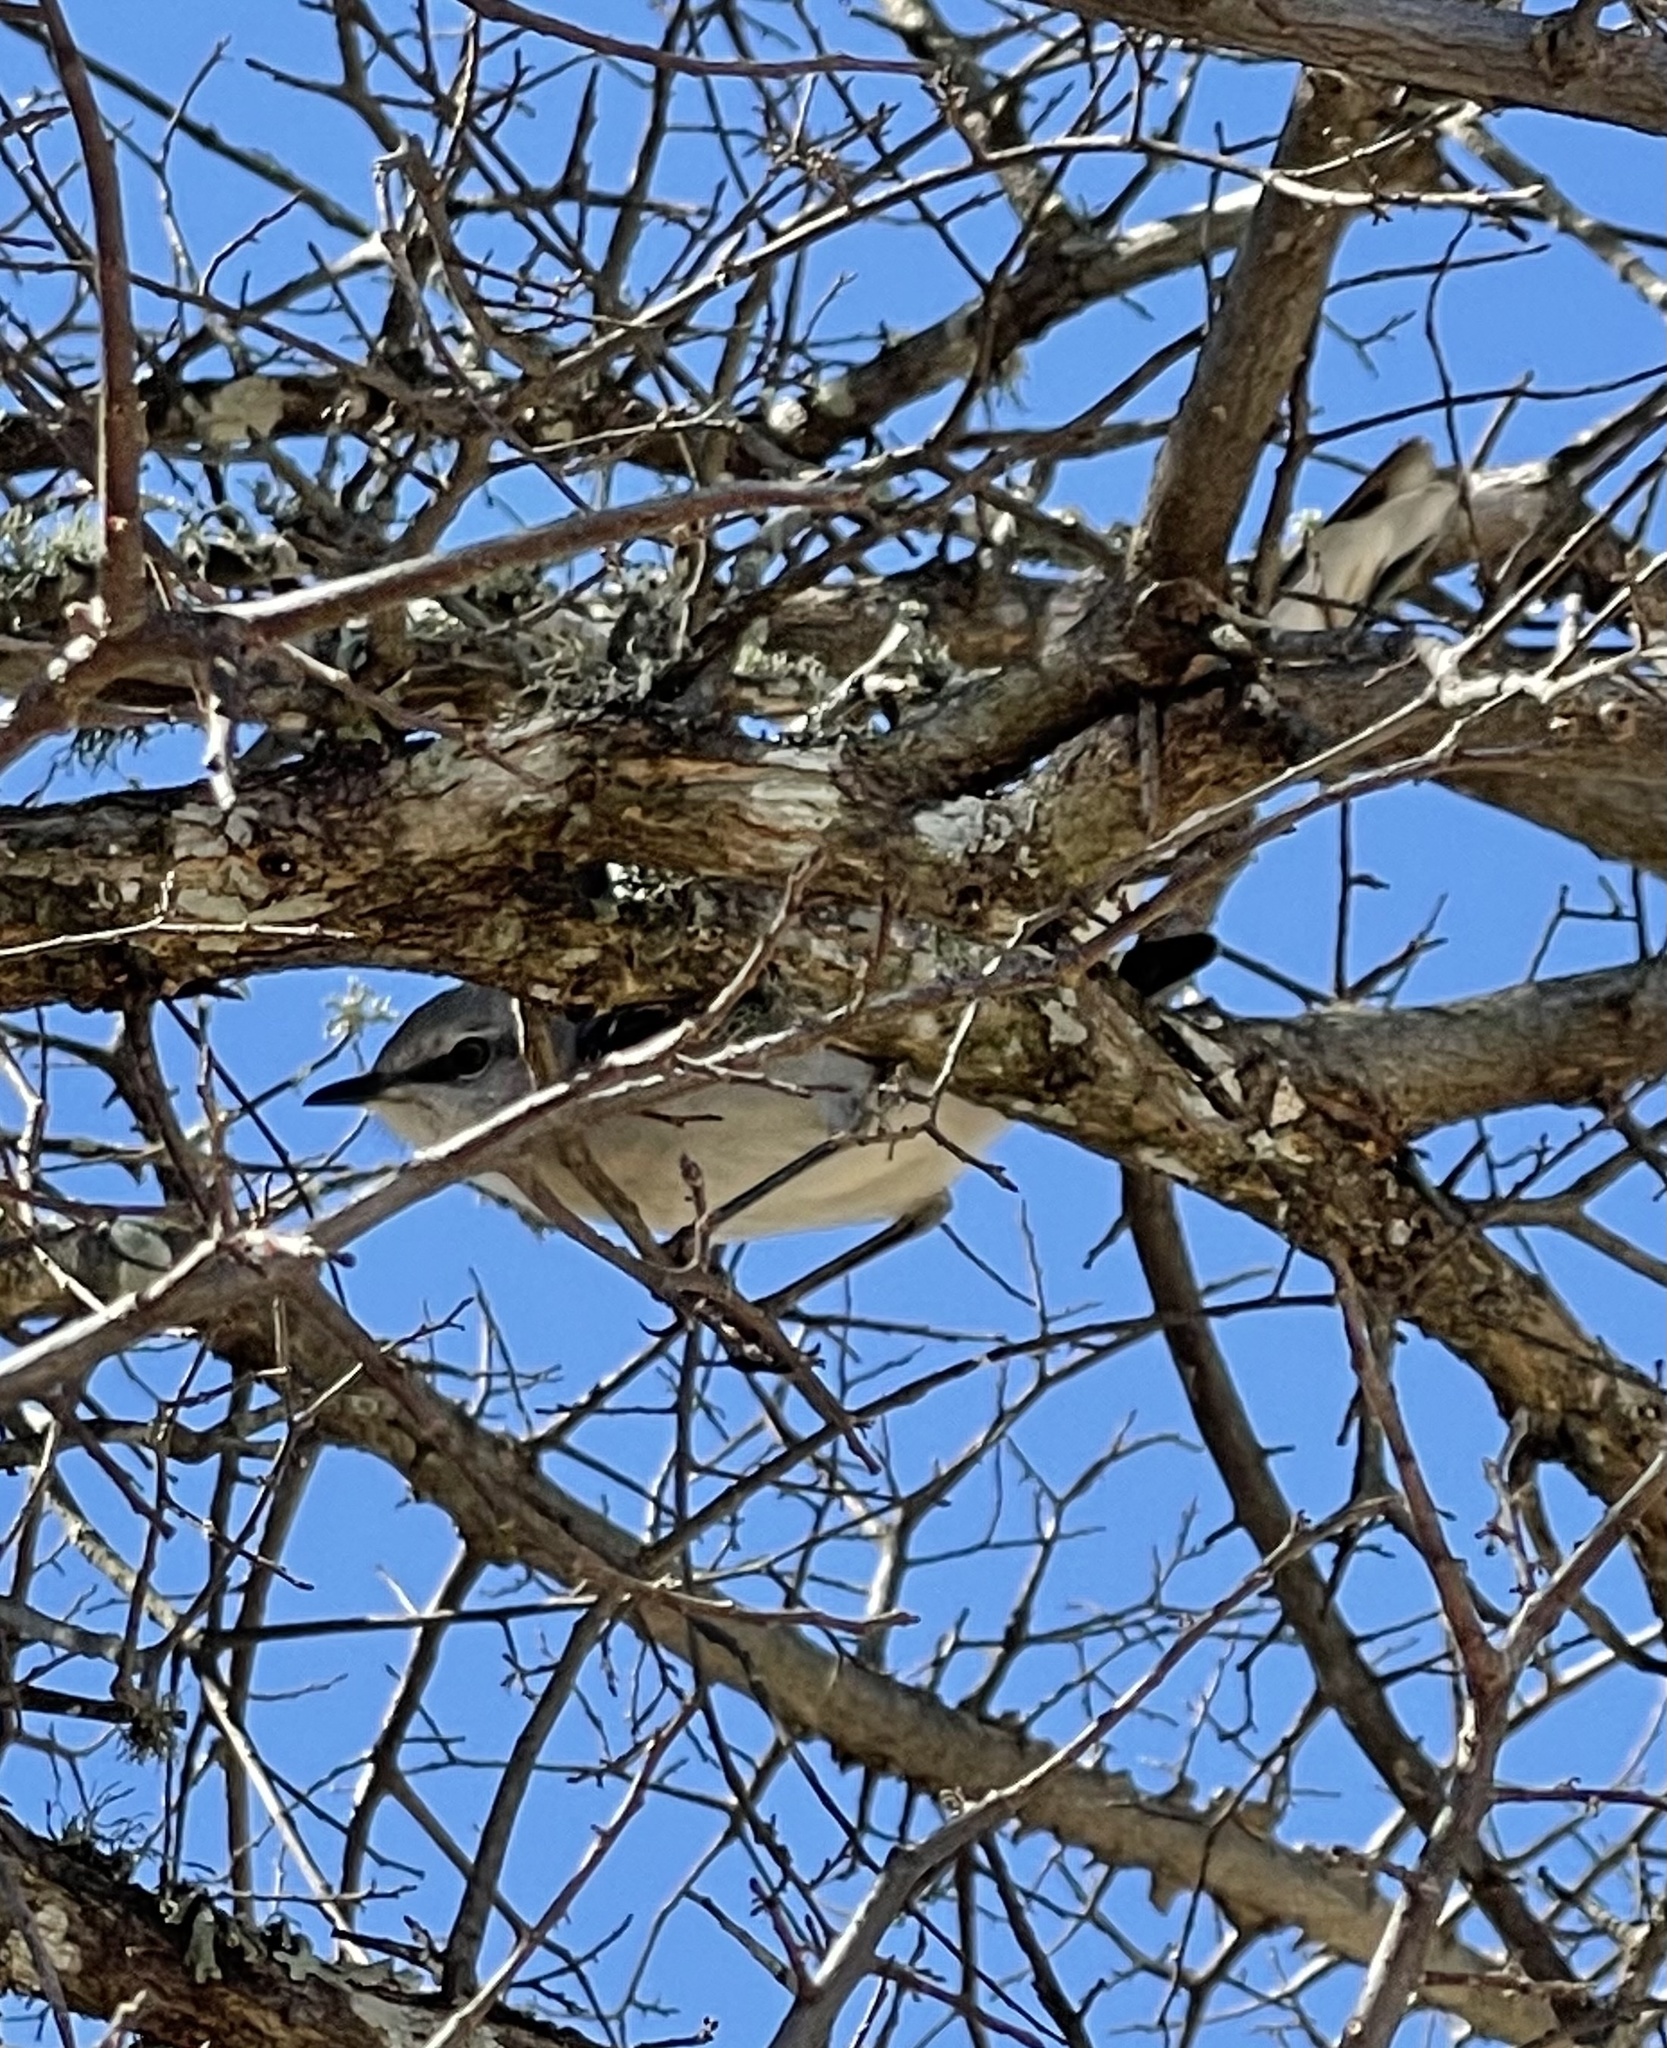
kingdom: Animalia
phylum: Chordata
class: Aves
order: Passeriformes
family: Mimidae
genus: Mimus
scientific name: Mimus polyglottos
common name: Northern mockingbird
